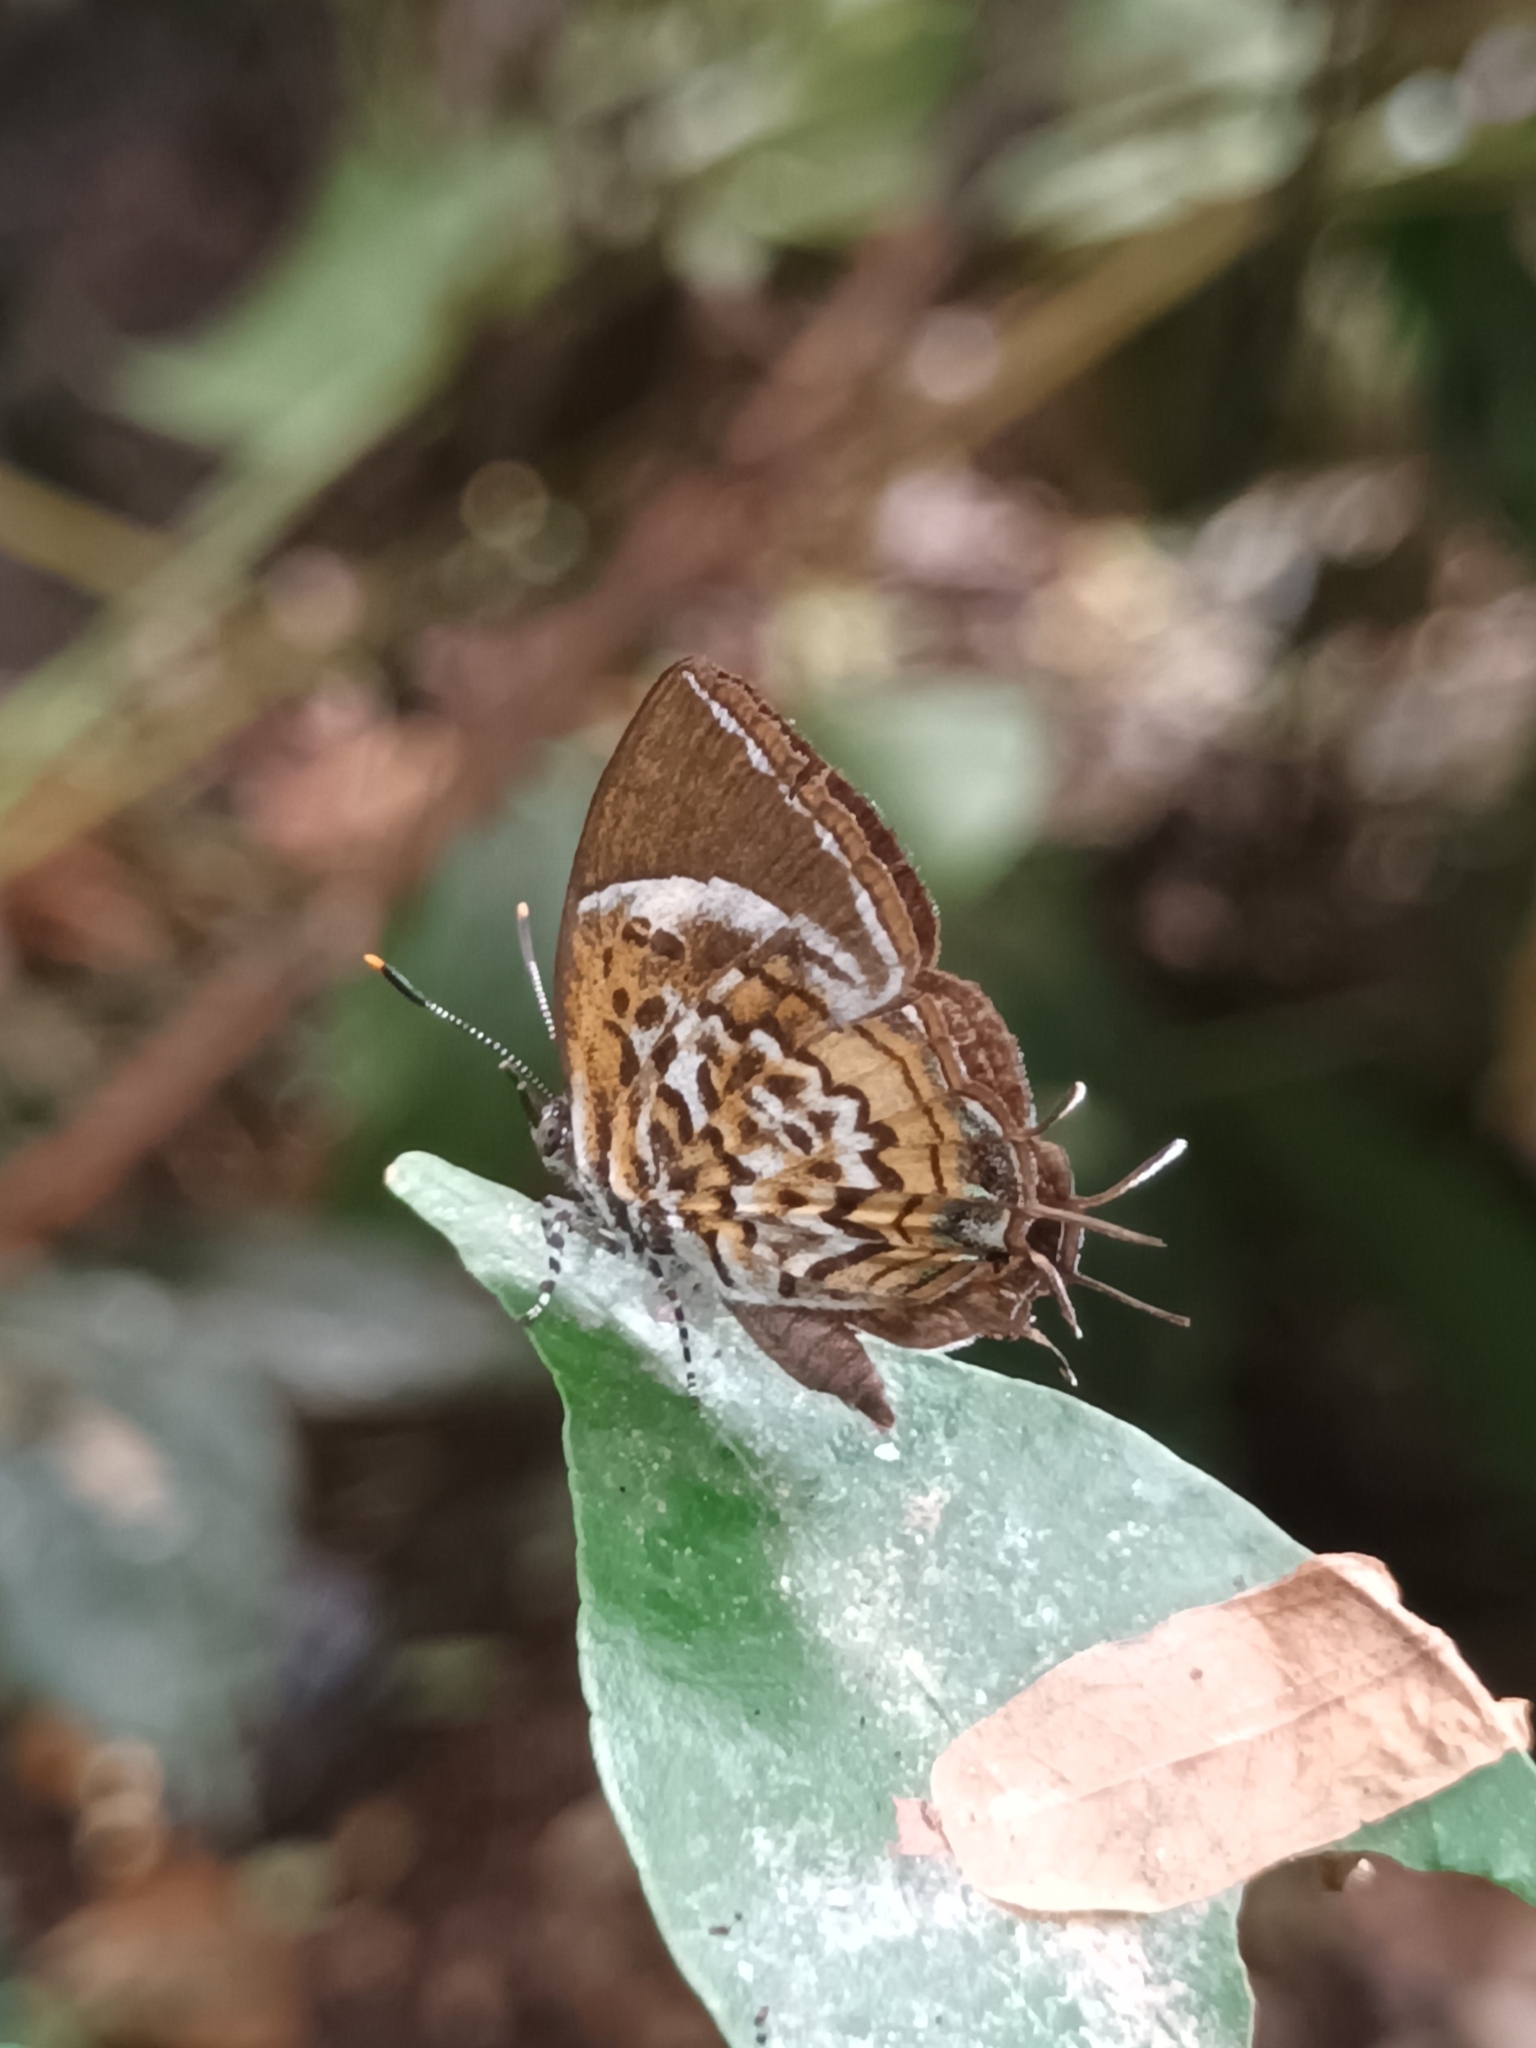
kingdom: Animalia
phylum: Arthropoda
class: Insecta
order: Lepidoptera
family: Lycaenidae
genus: Rathinda
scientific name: Rathinda amor
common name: Monkey puzzle
